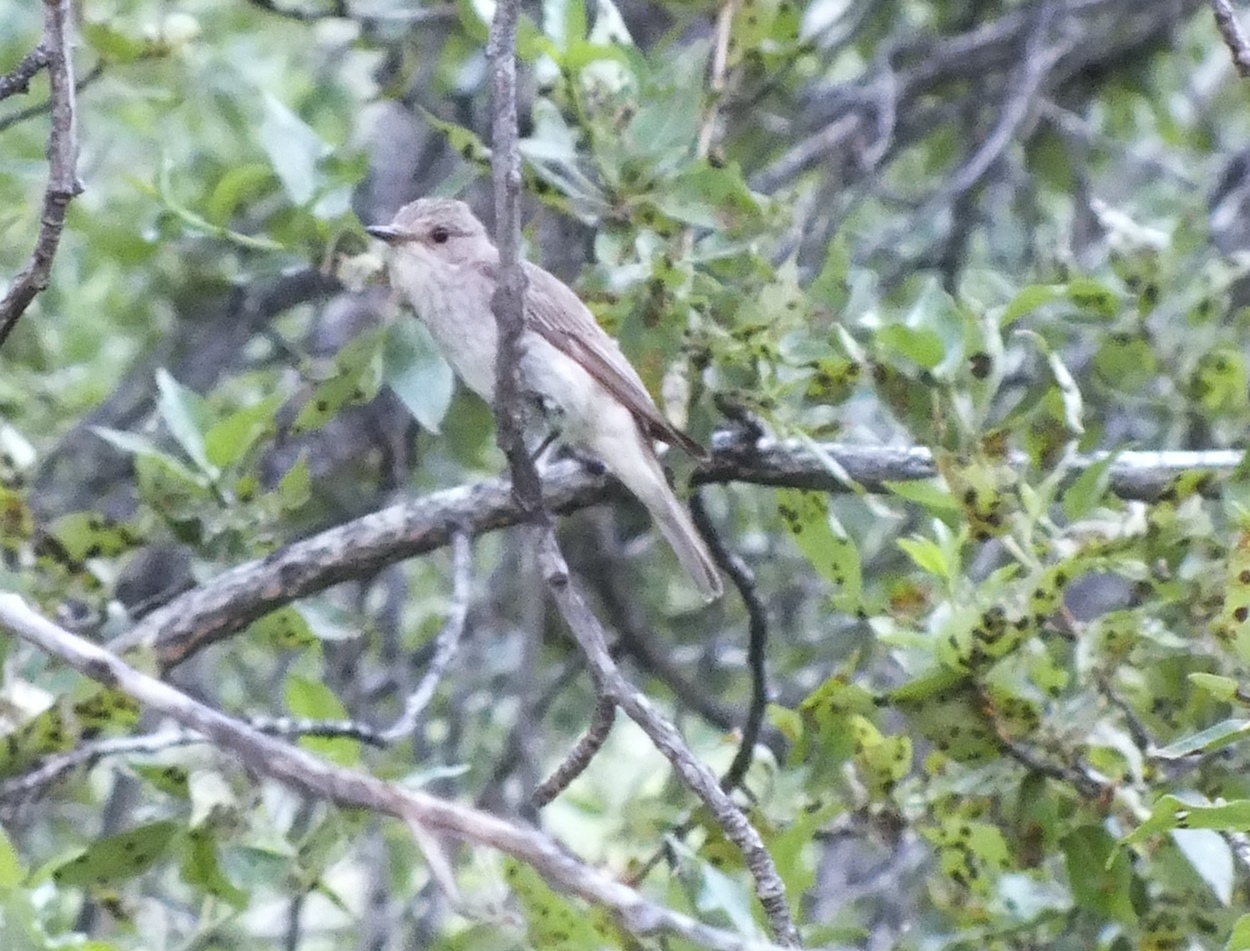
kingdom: Animalia
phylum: Chordata
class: Aves
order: Passeriformes
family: Muscicapidae
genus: Oenanthe
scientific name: Oenanthe pleschanka
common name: Pied wheatear
